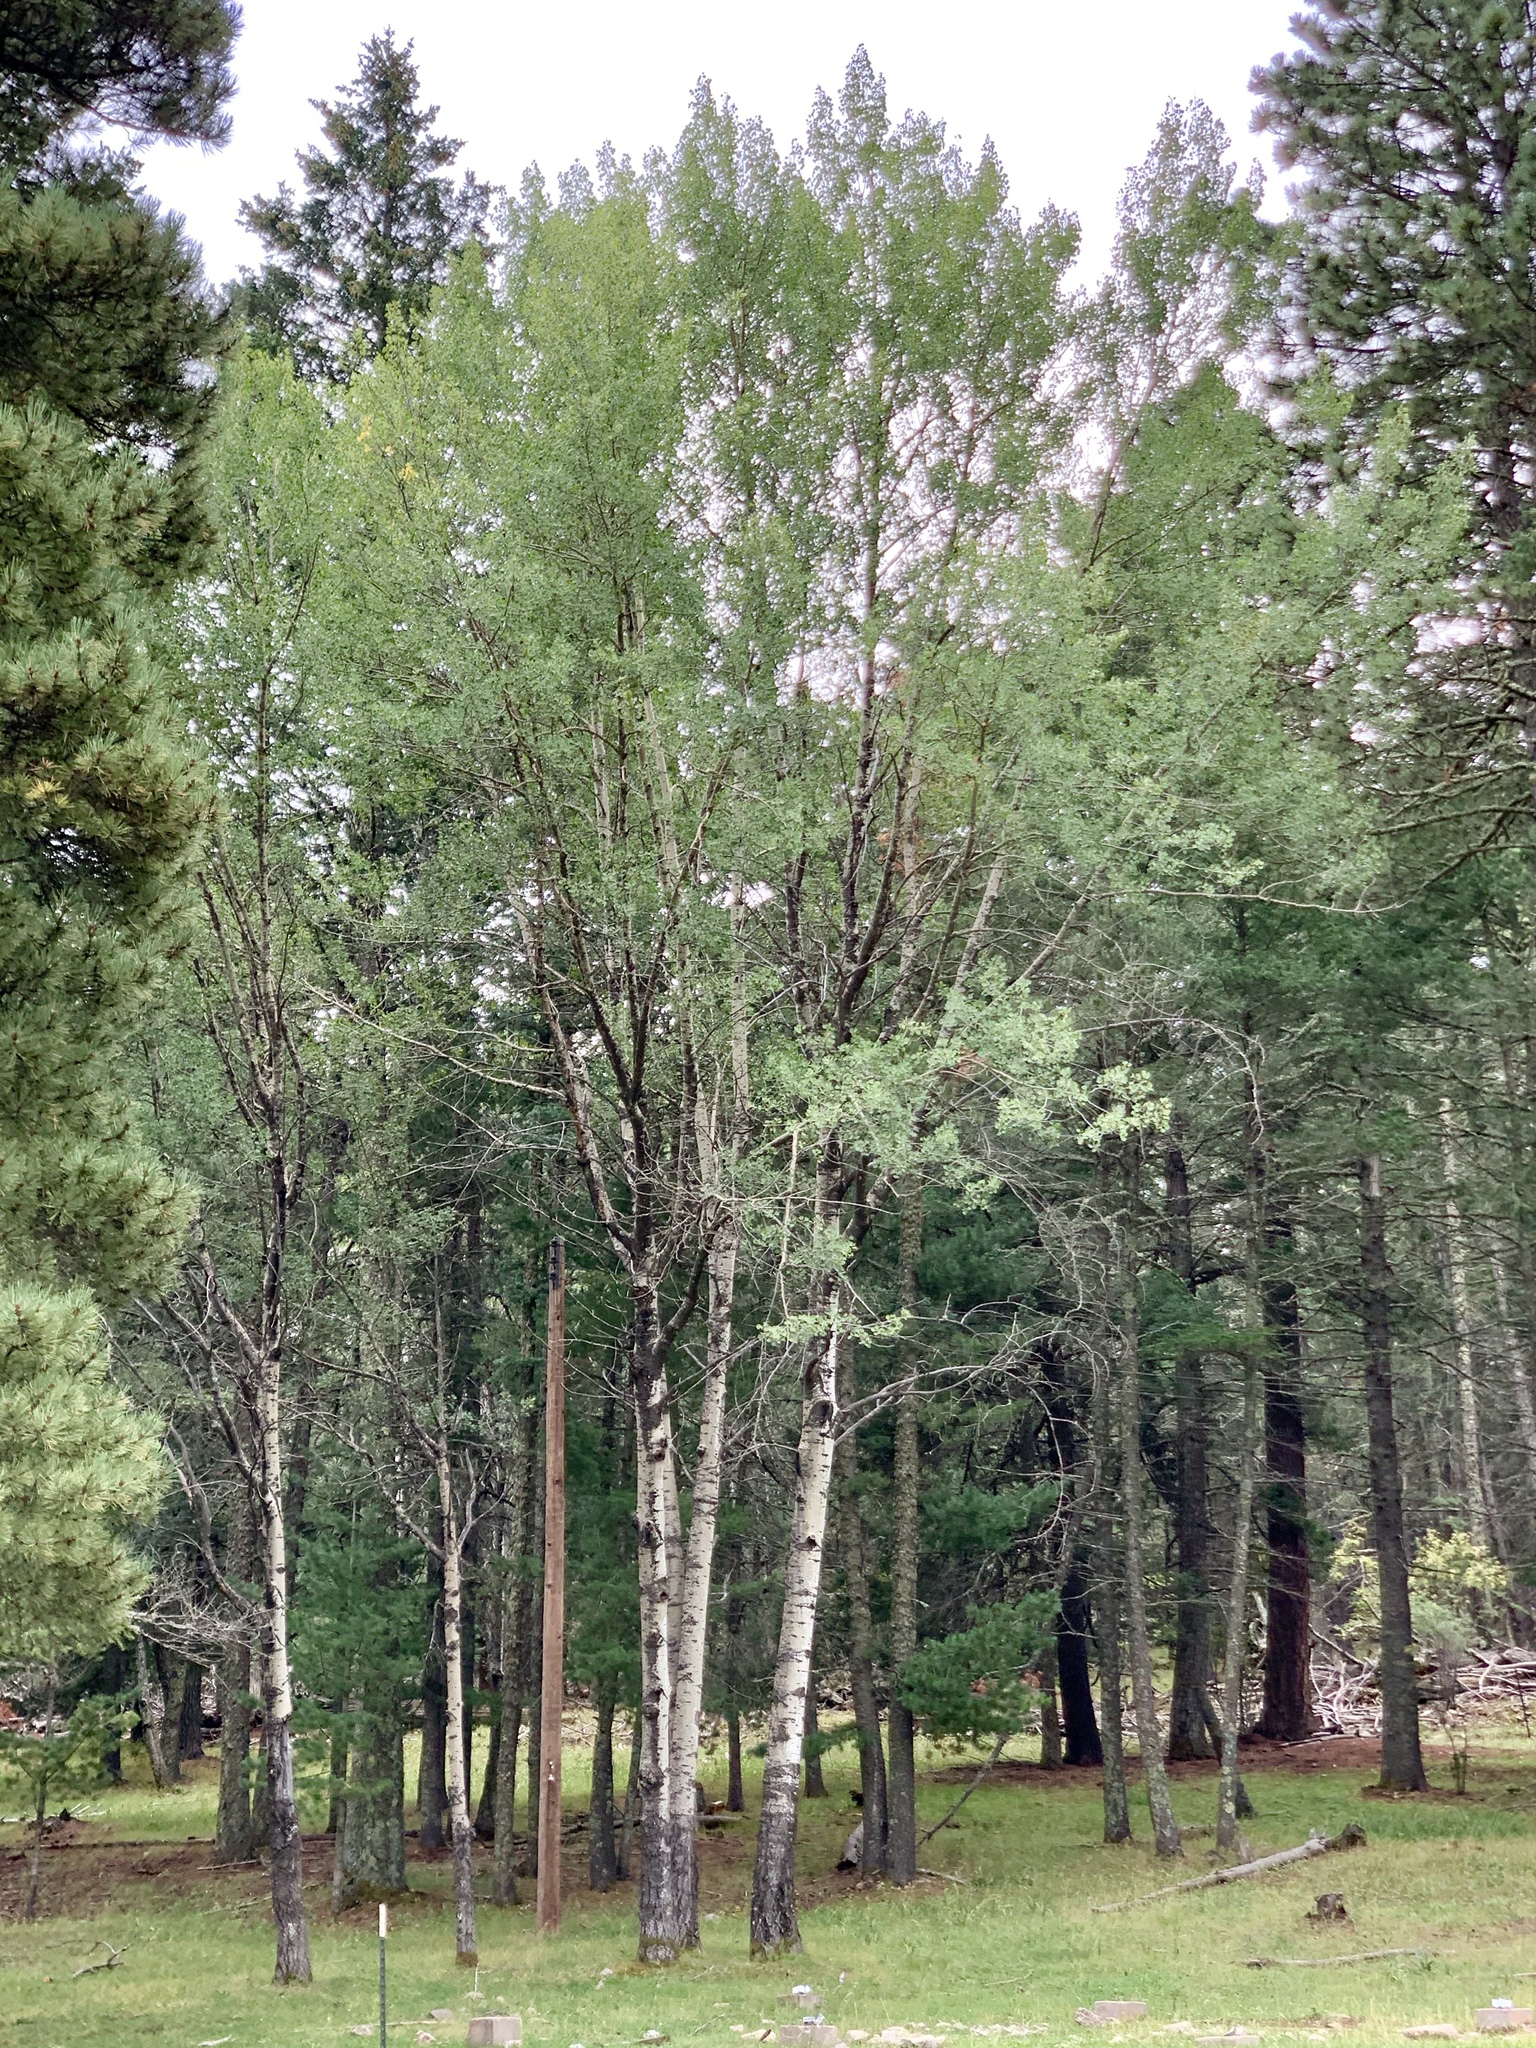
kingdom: Plantae
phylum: Tracheophyta
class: Magnoliopsida
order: Malpighiales
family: Salicaceae
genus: Populus
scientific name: Populus tremuloides
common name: Quaking aspen
